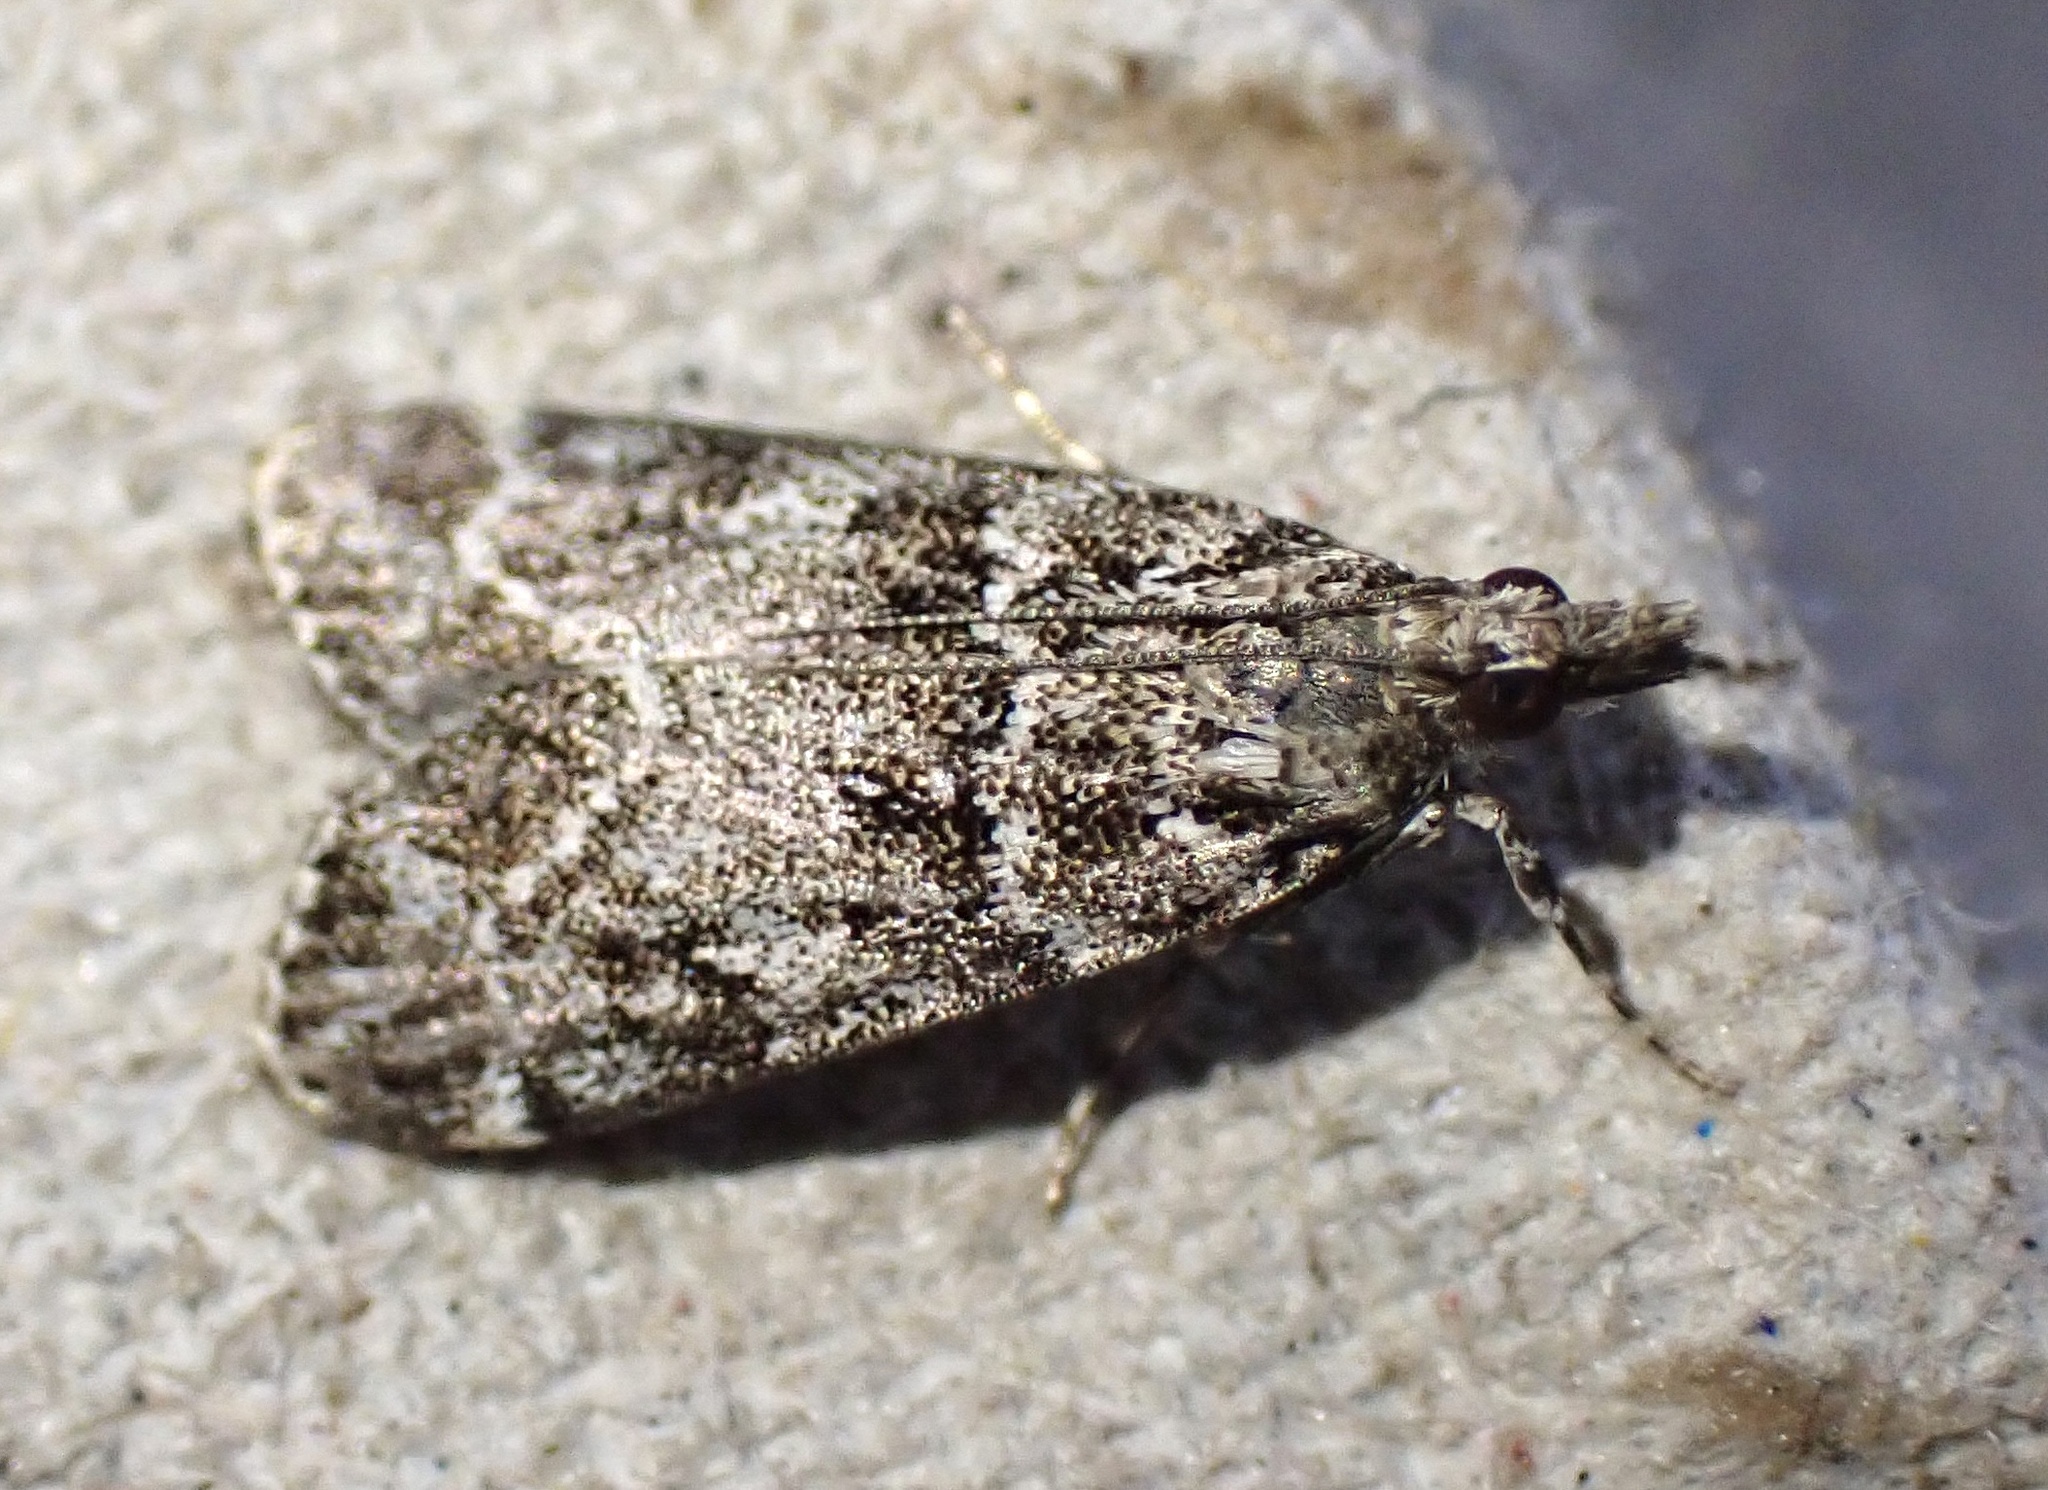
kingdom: Animalia
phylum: Arthropoda
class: Insecta
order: Lepidoptera
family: Crambidae
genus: Eudonia
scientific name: Eudonia mercurella
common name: Small grey
